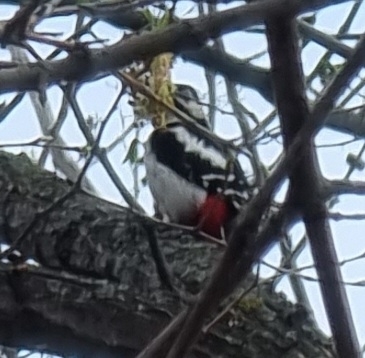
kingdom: Animalia
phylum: Chordata
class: Aves
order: Piciformes
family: Picidae
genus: Dendrocopos
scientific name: Dendrocopos major
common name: Great spotted woodpecker
